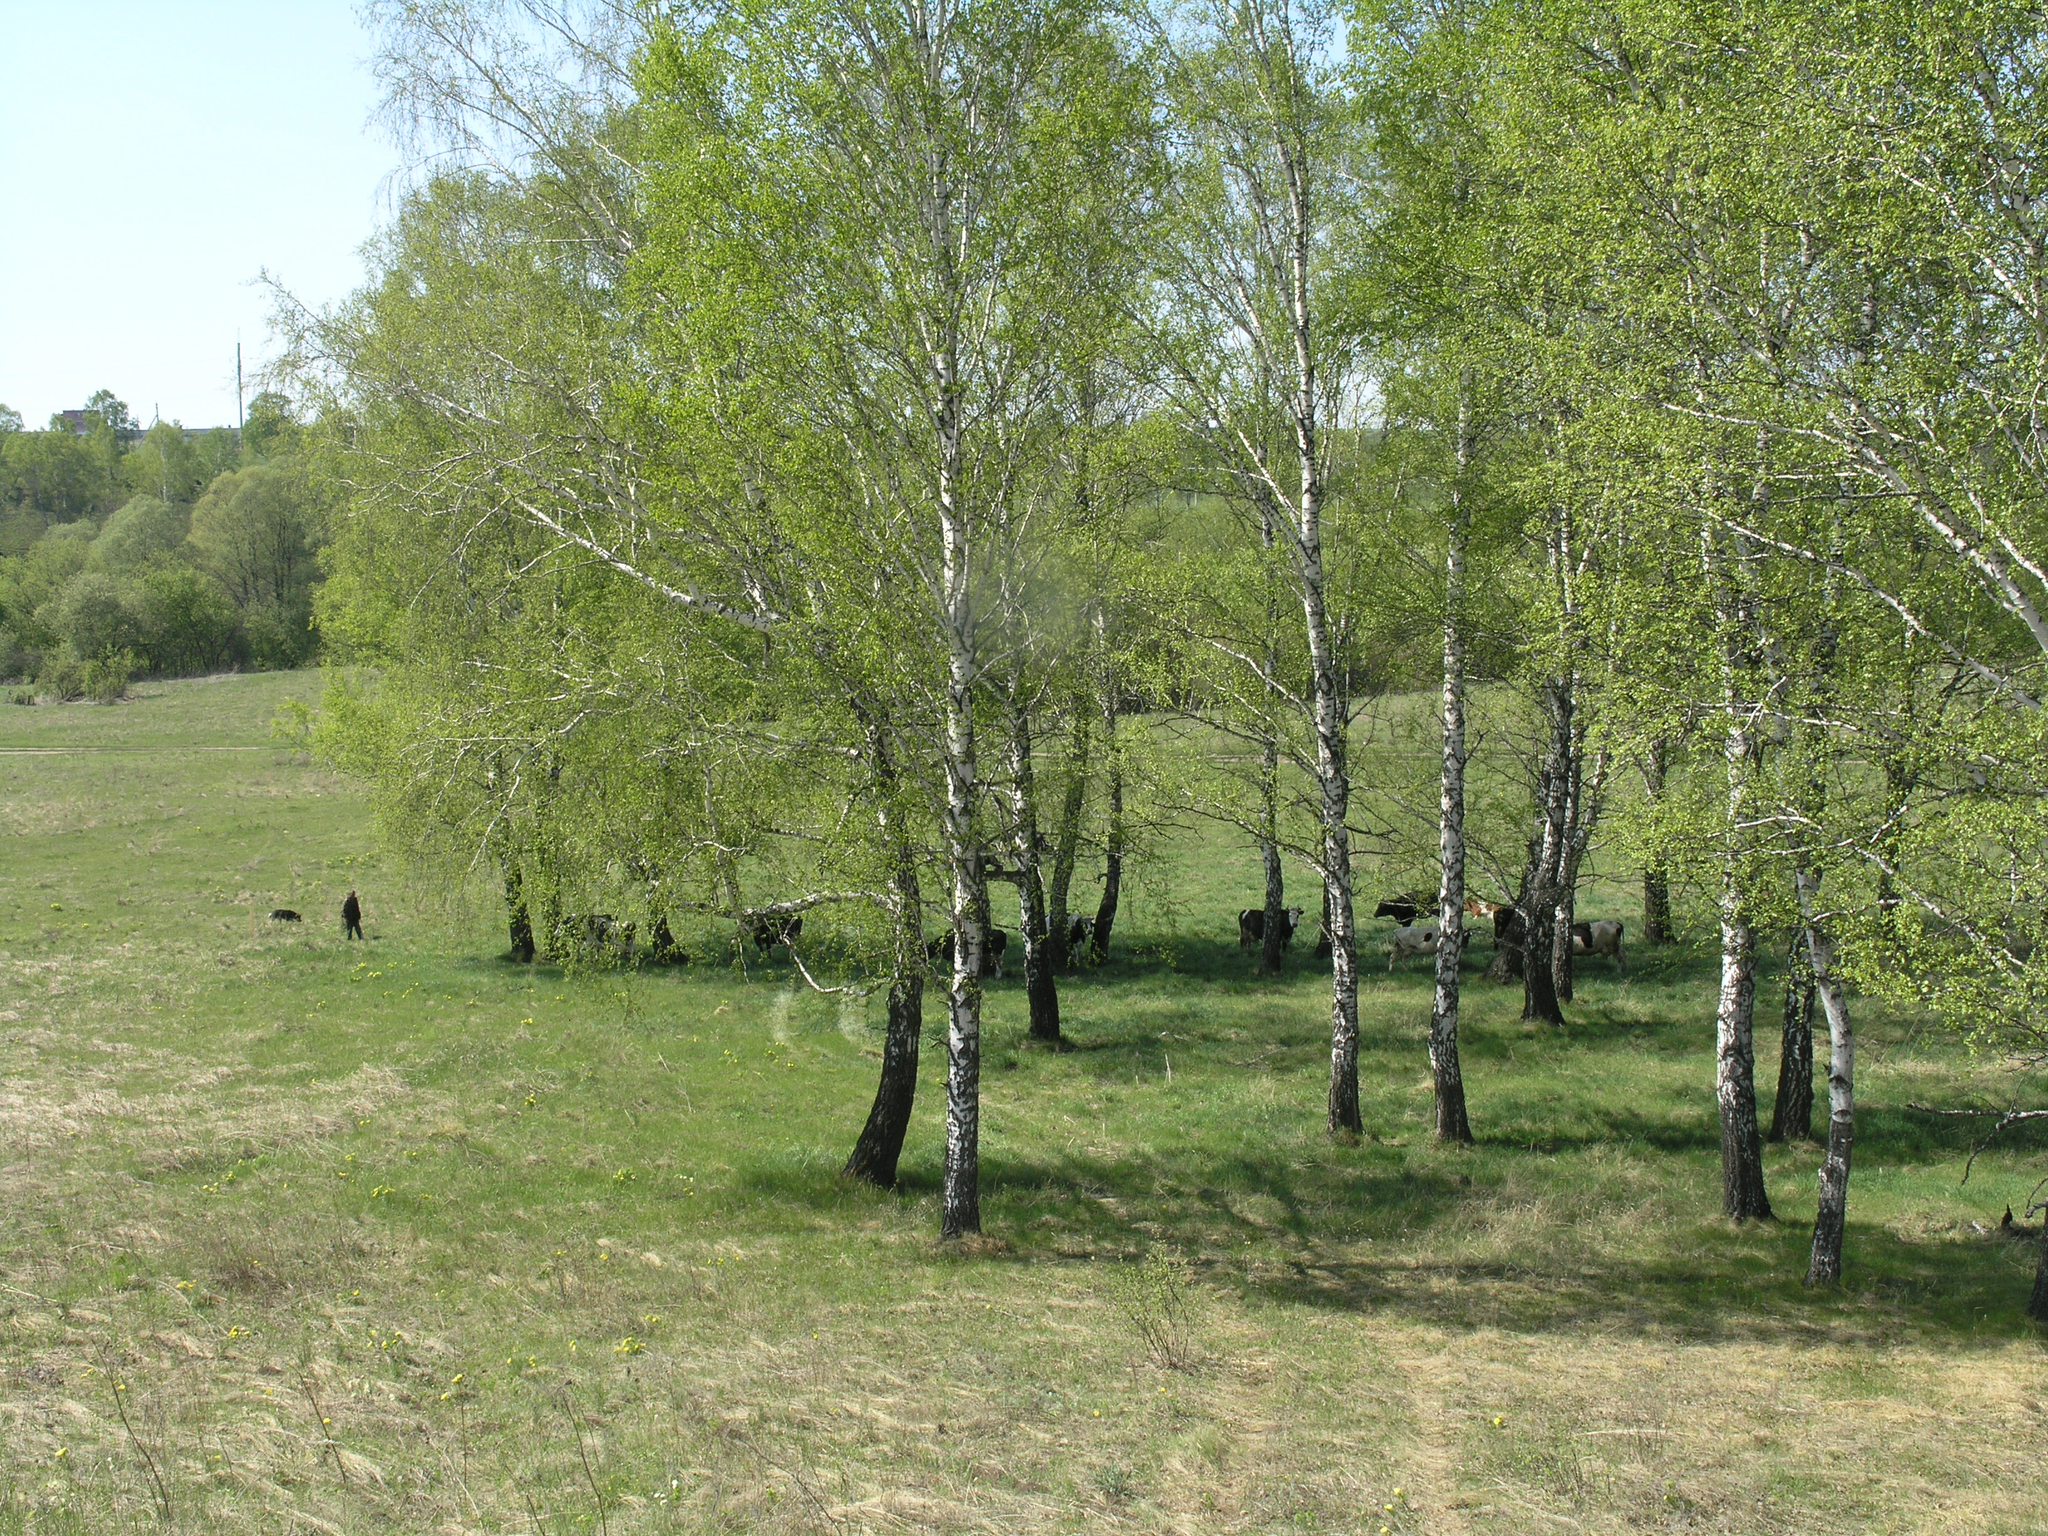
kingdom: Plantae
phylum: Tracheophyta
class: Magnoliopsida
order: Fagales
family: Betulaceae
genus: Betula
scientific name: Betula pendula
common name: Silver birch
